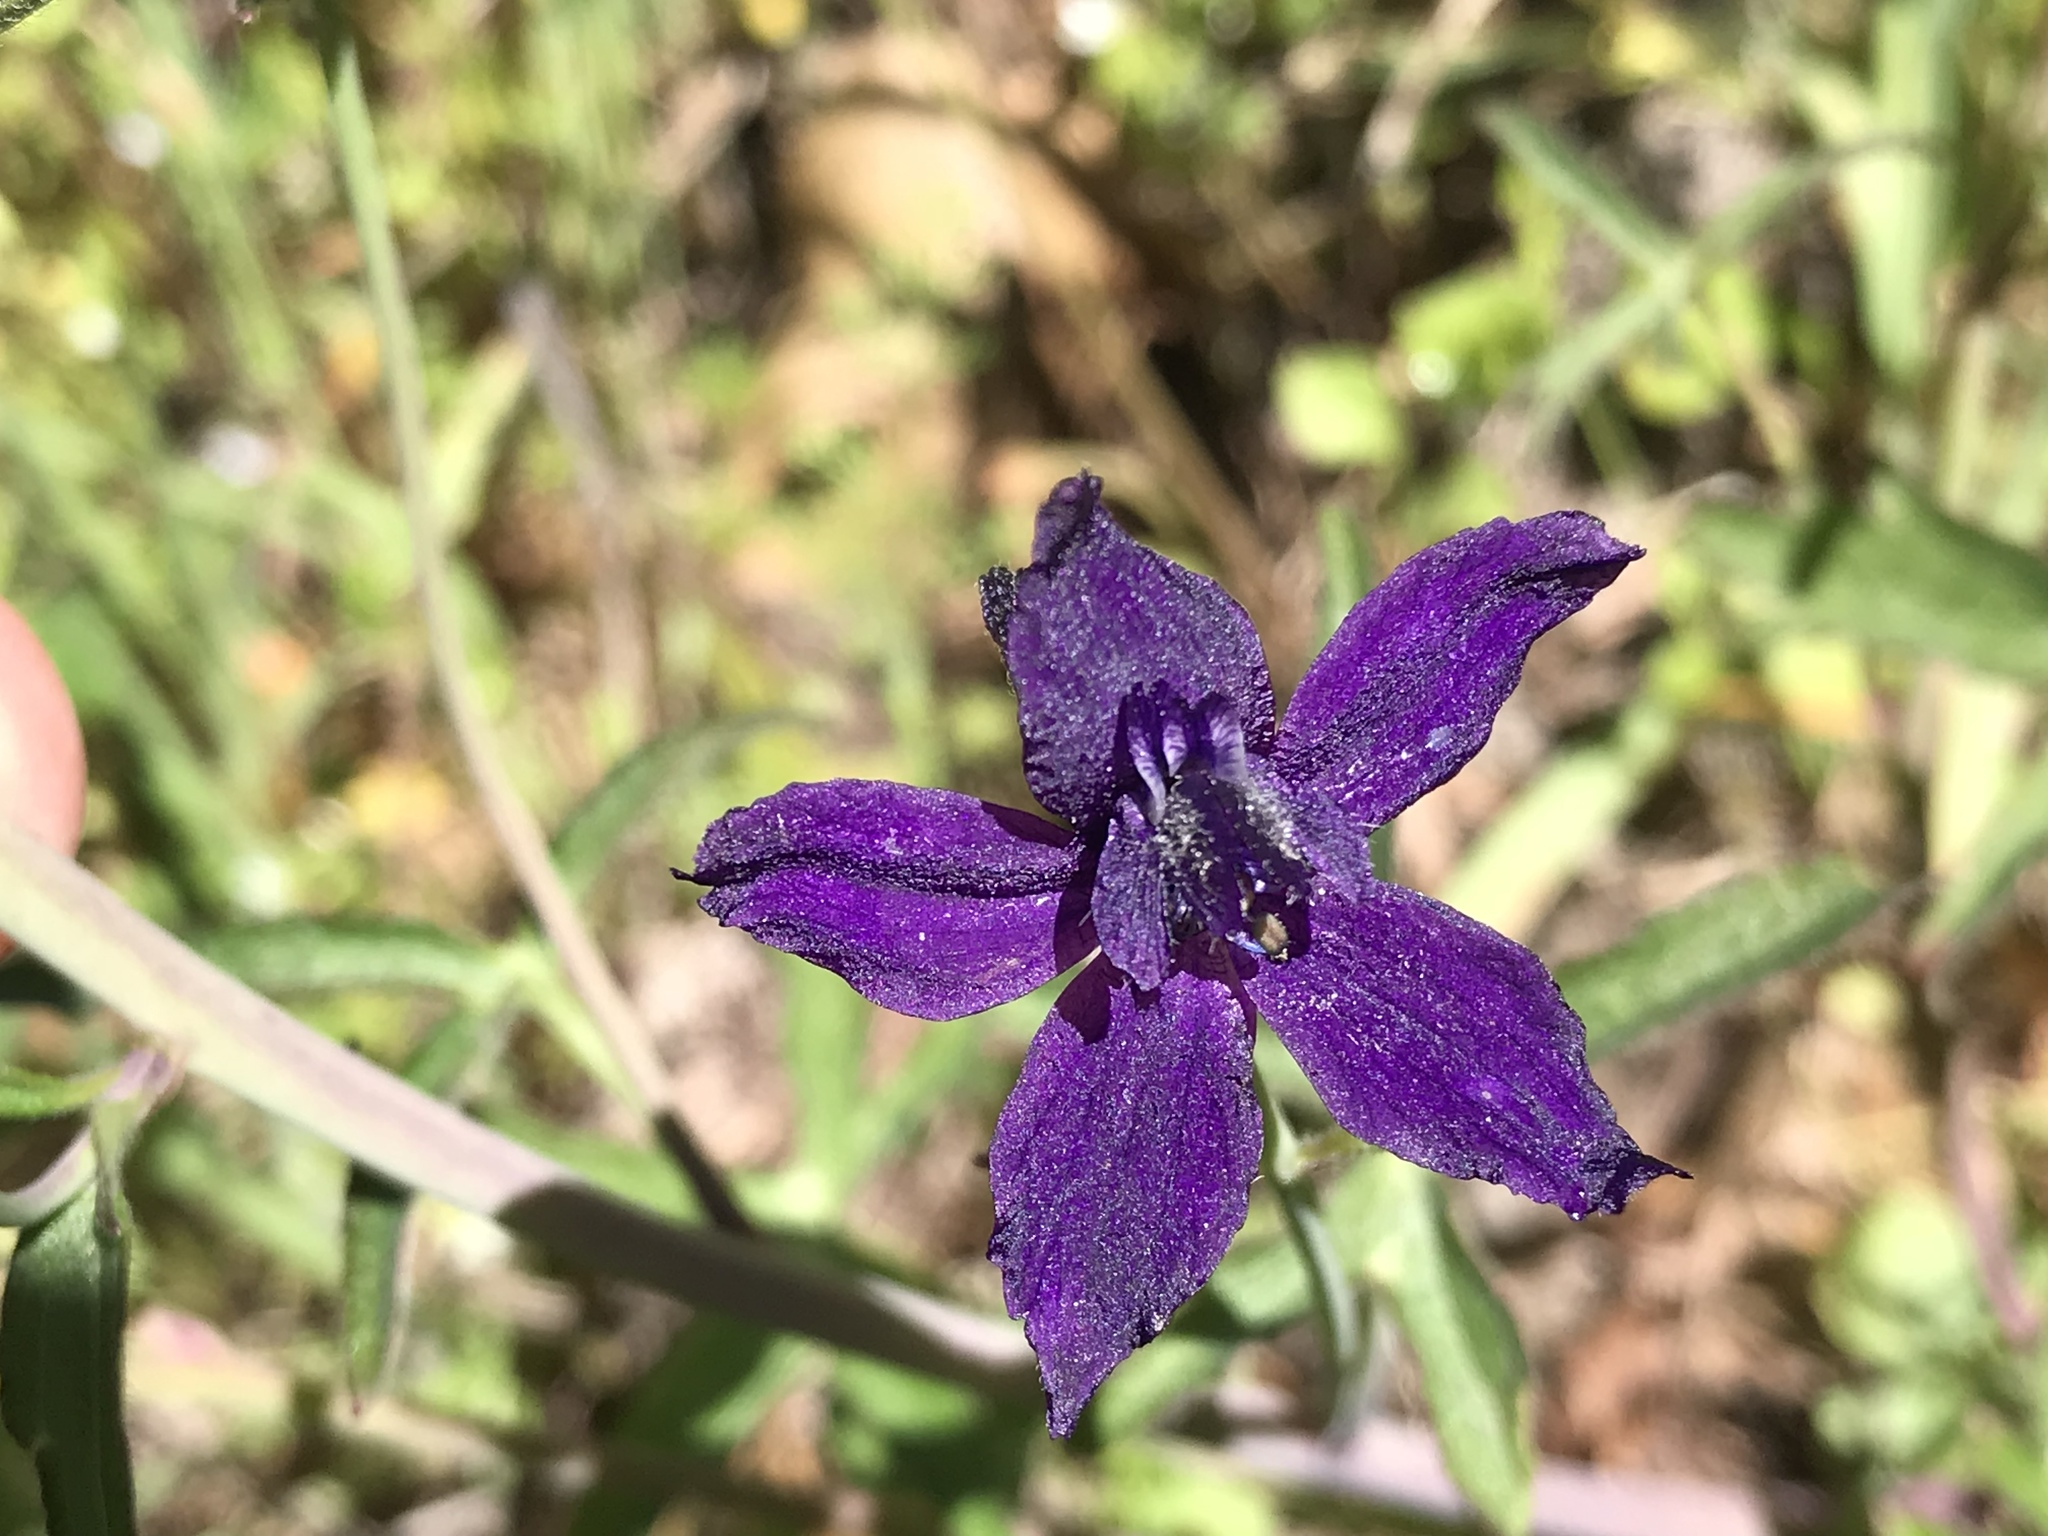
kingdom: Plantae
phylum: Tracheophyta
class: Magnoliopsida
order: Ranunculales
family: Ranunculaceae
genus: Delphinium
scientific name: Delphinium patens
